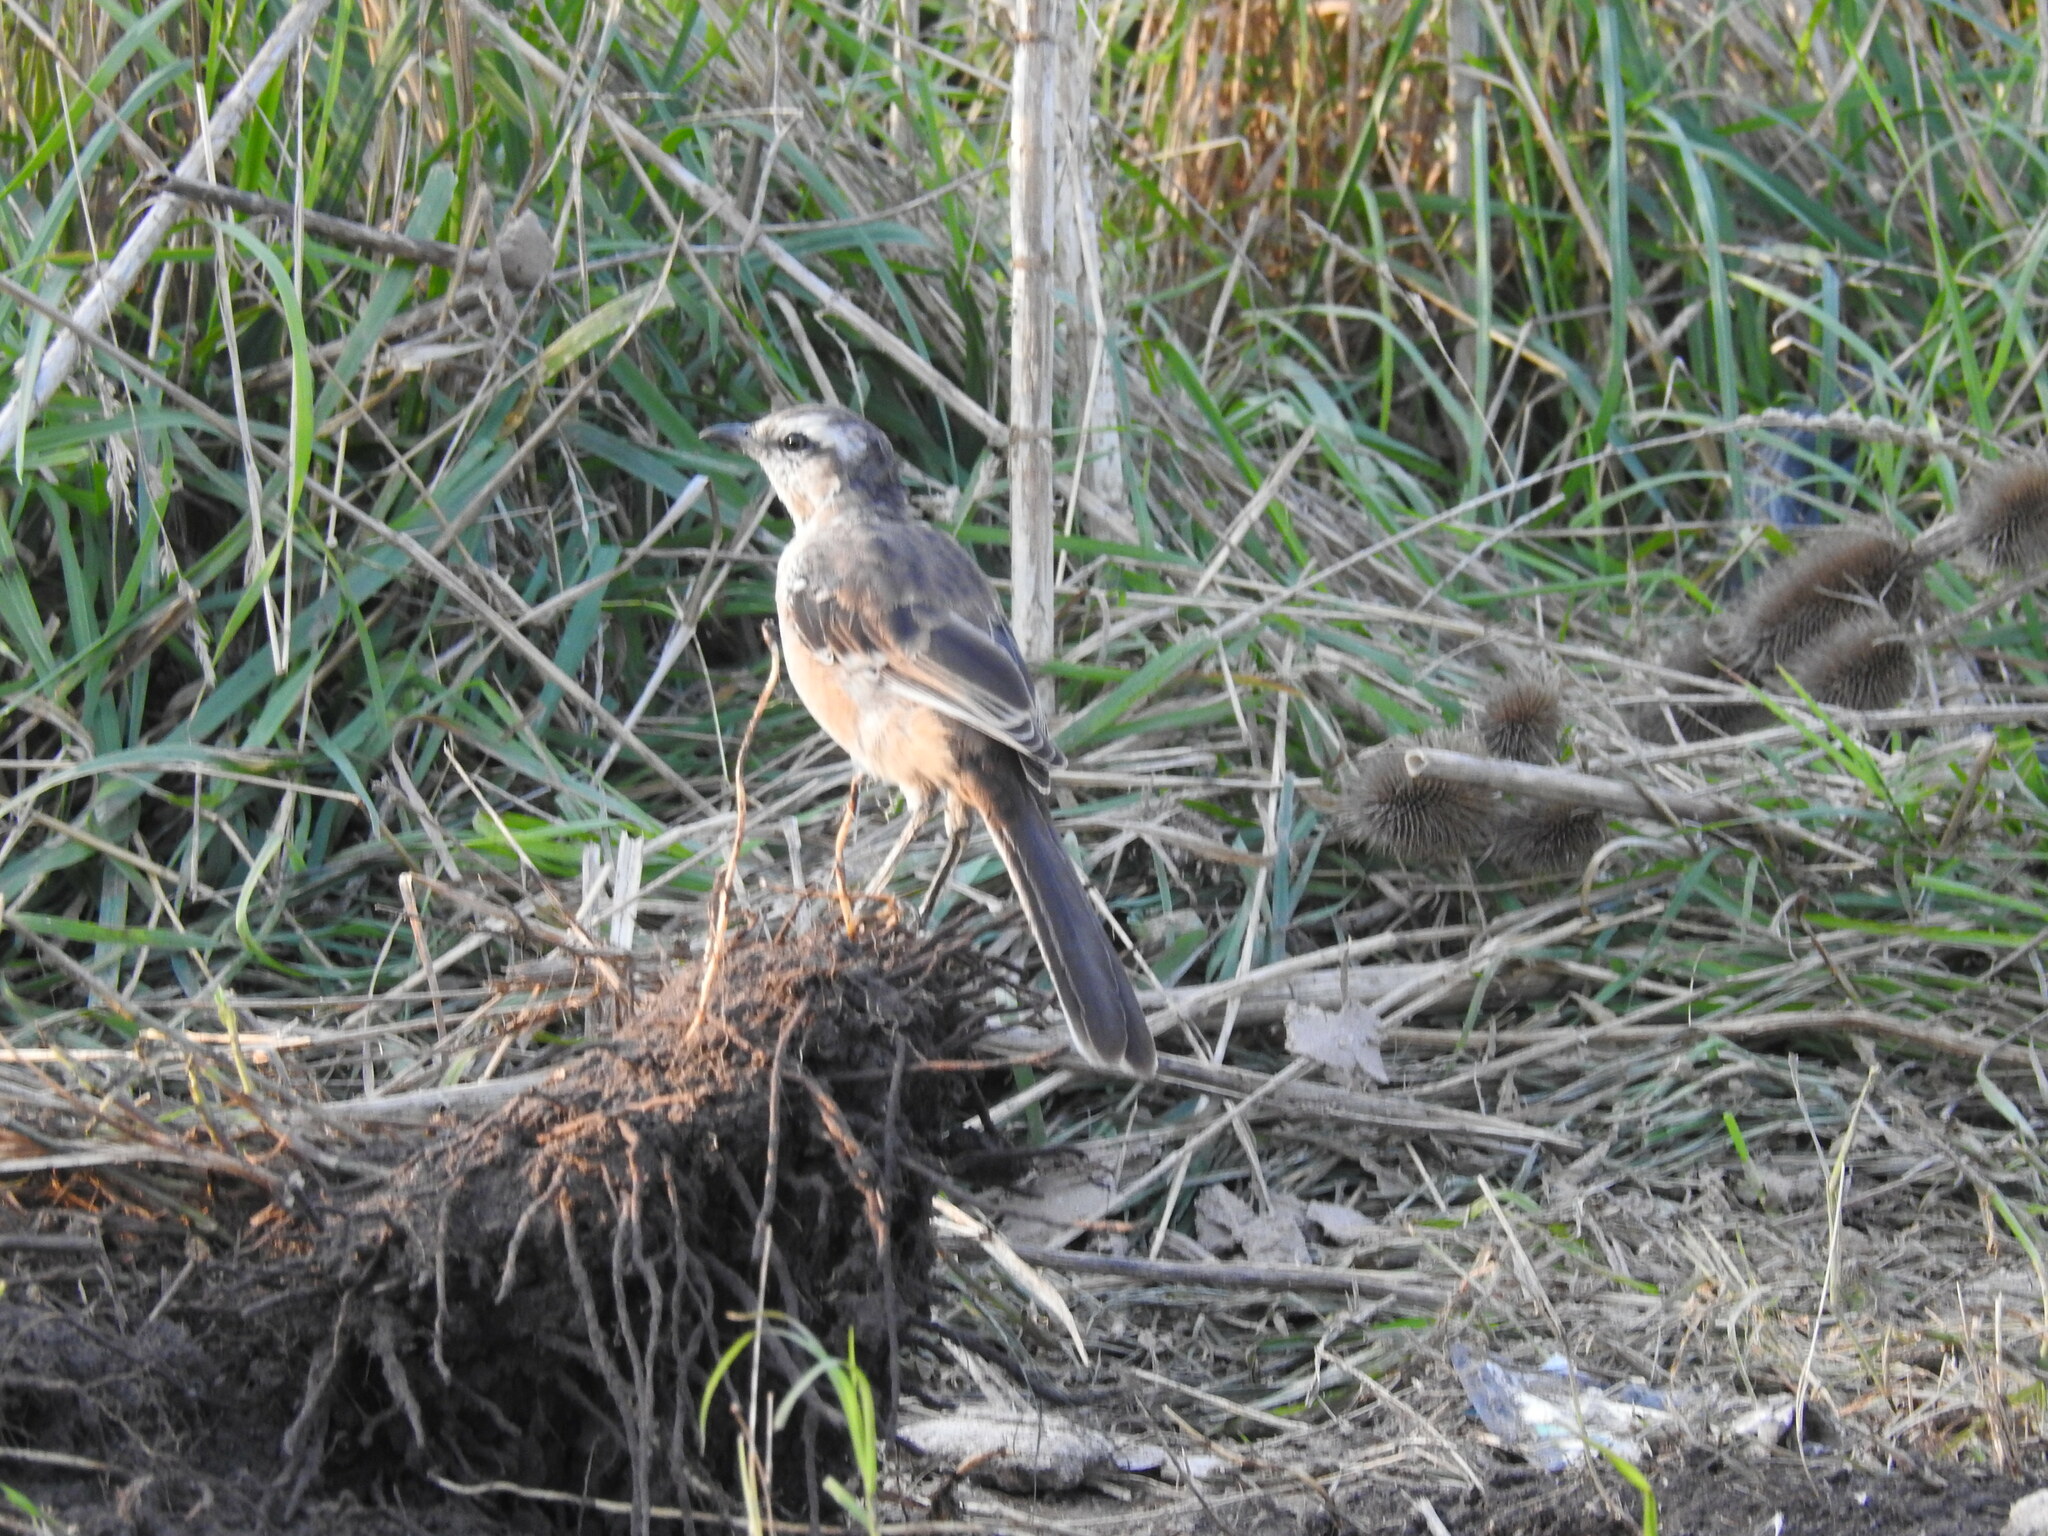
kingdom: Animalia
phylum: Chordata
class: Aves
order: Passeriformes
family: Mimidae
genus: Mimus
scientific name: Mimus saturninus
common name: Chalk-browed mockingbird
